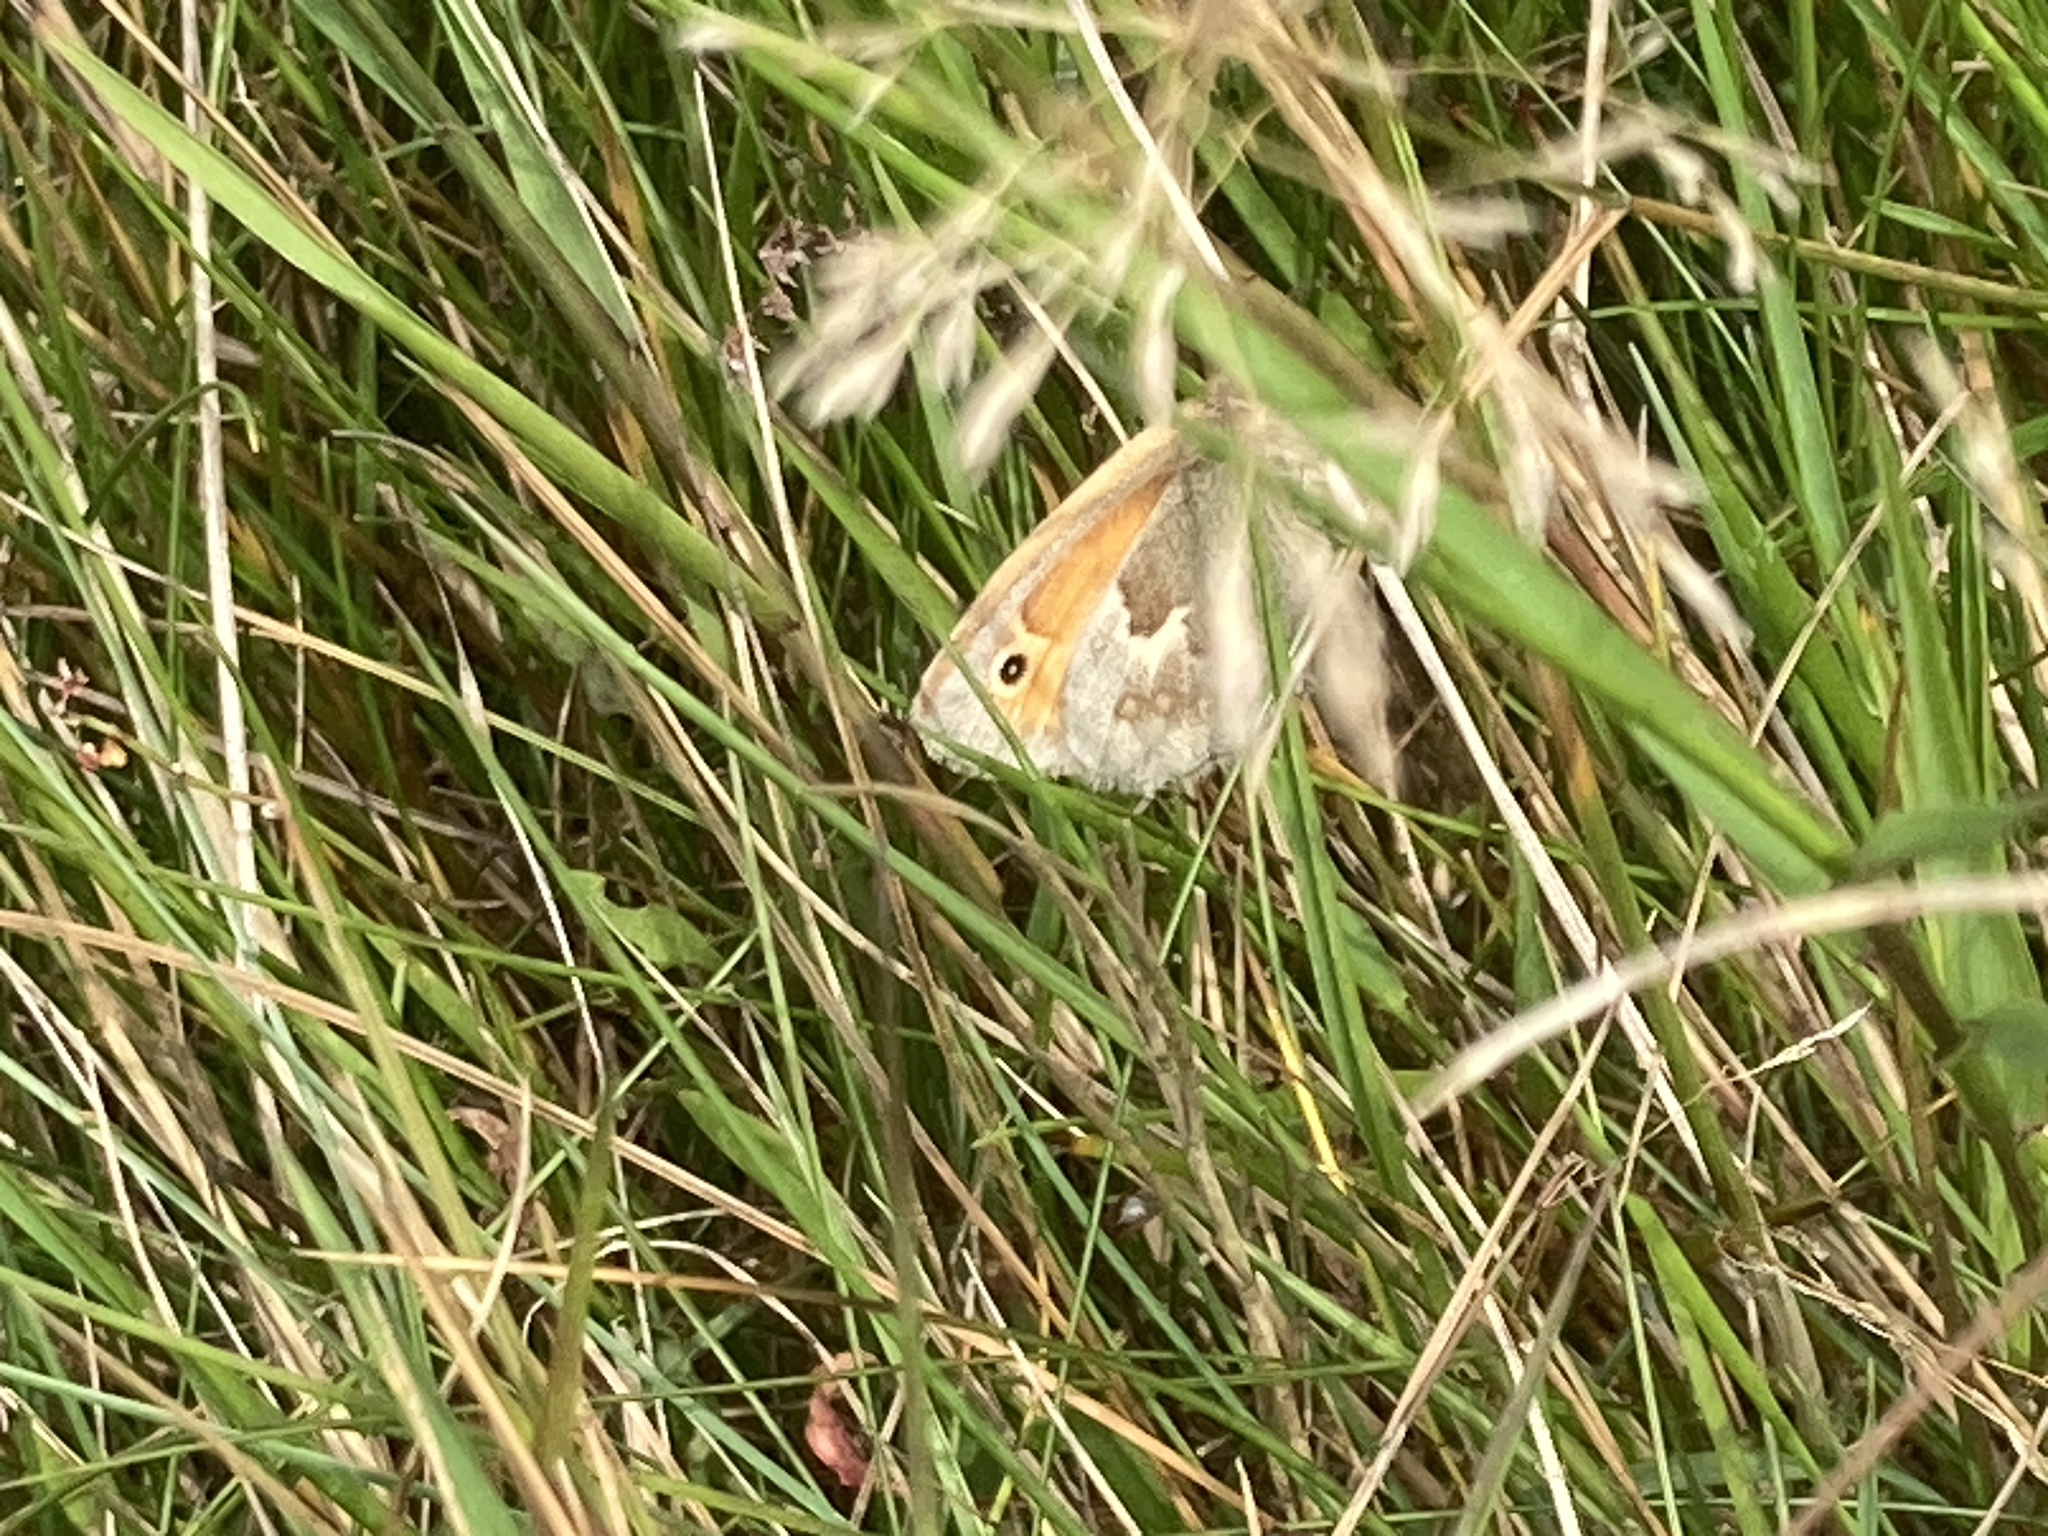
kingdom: Animalia
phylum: Arthropoda
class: Insecta
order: Lepidoptera
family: Nymphalidae
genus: Coenonympha
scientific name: Coenonympha pamphilus
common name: Small heath
